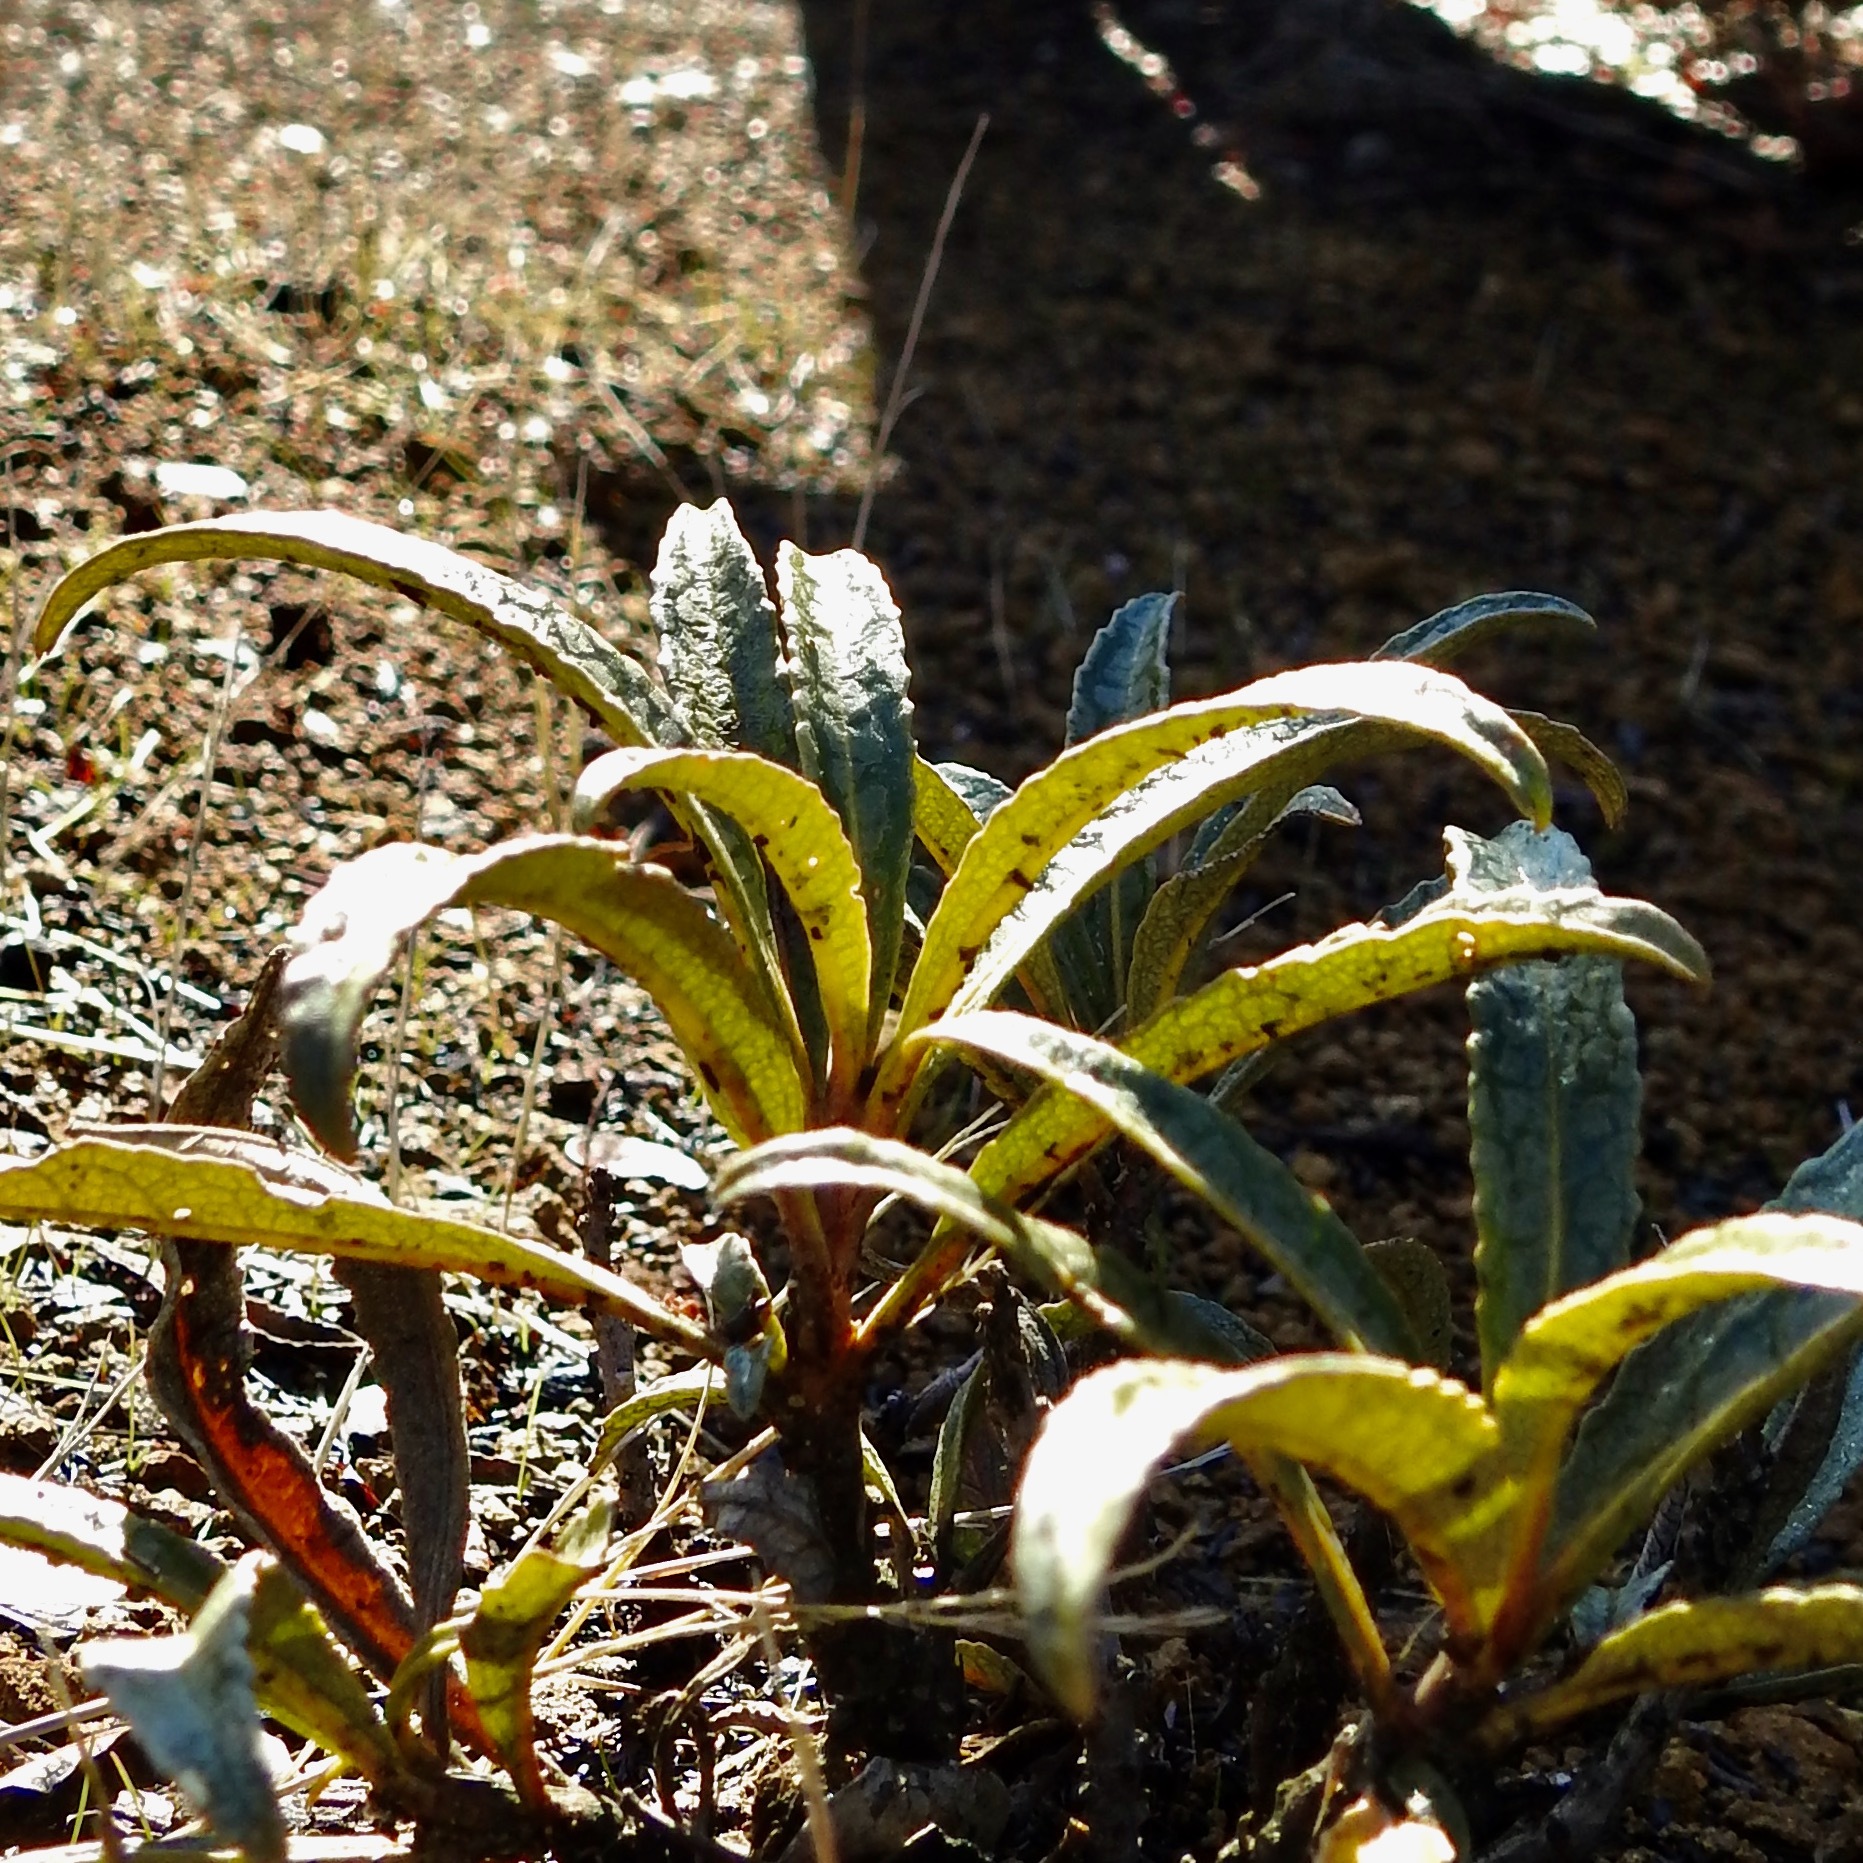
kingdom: Plantae
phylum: Tracheophyta
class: Magnoliopsida
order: Boraginales
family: Namaceae
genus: Eriodictyon
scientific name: Eriodictyon californicum
